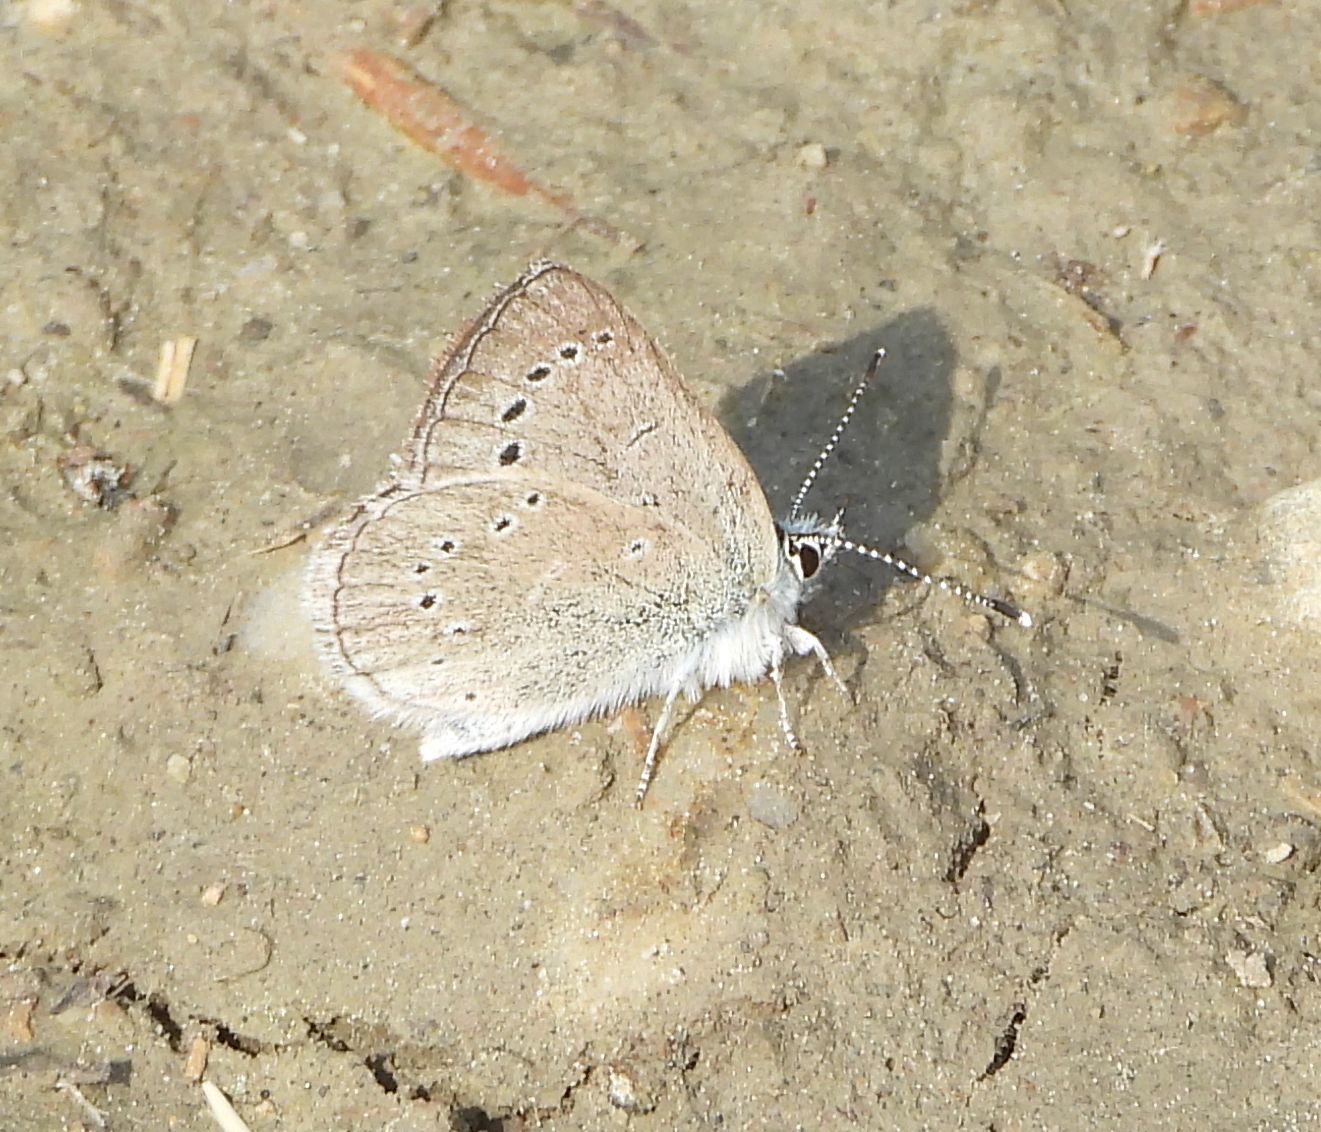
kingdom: Animalia
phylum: Arthropoda
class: Insecta
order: Lepidoptera
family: Lycaenidae
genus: Glaucopsyche
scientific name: Glaucopsyche lygdamus
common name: Silvery blue
